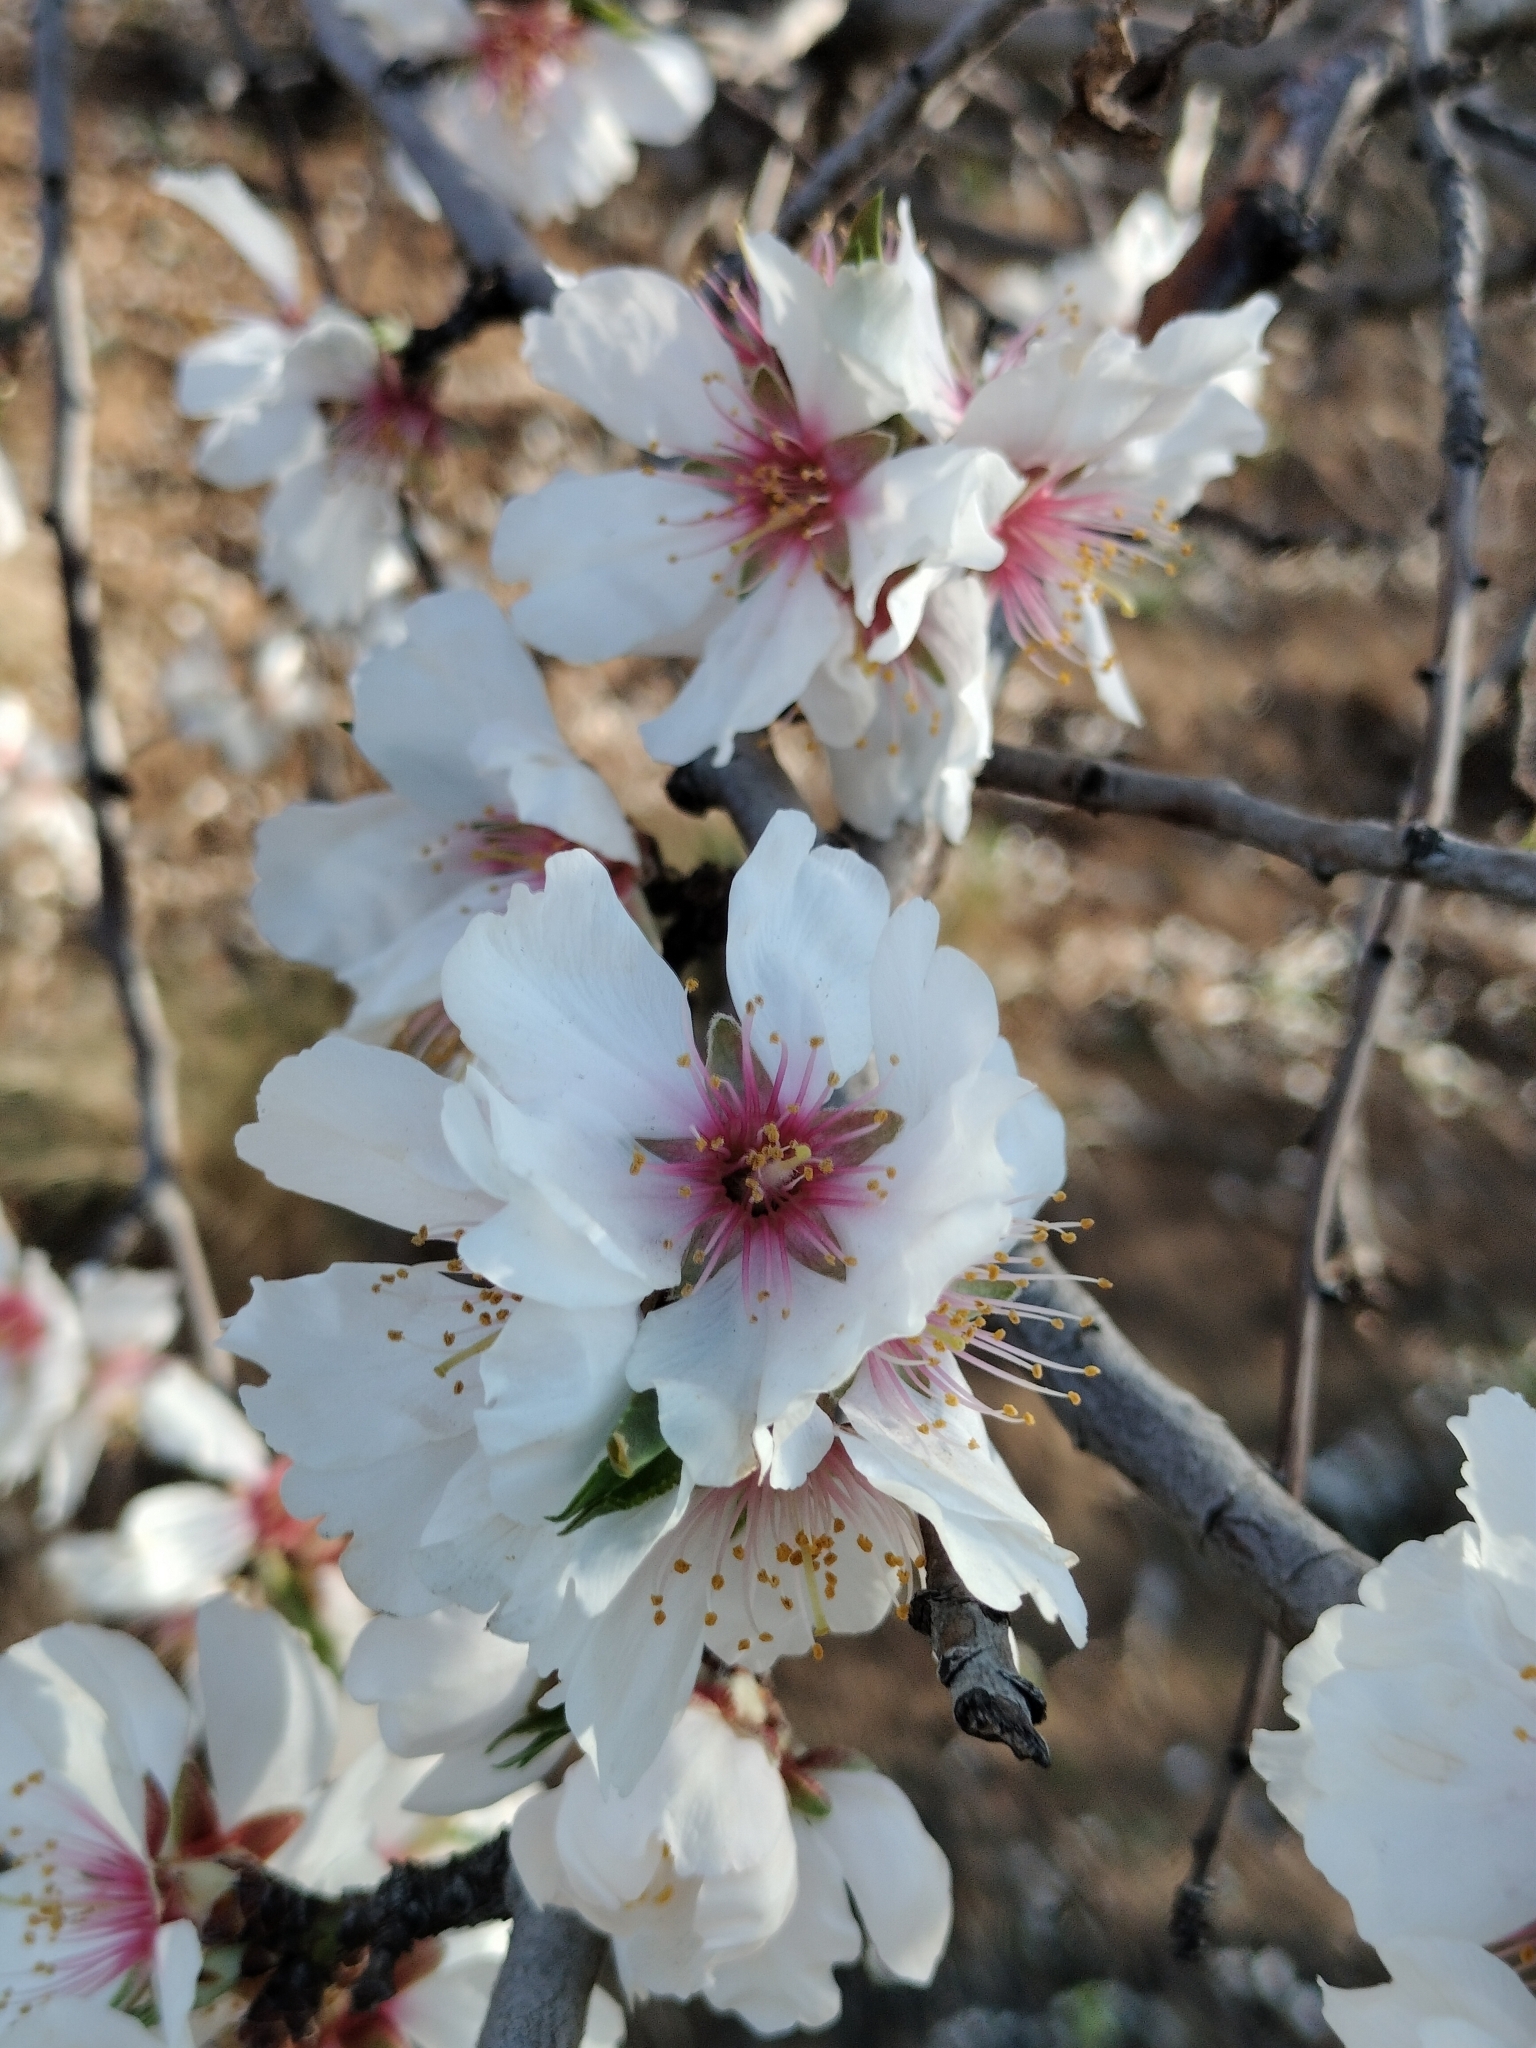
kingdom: Plantae
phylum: Tracheophyta
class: Magnoliopsida
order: Rosales
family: Rosaceae
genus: Prunus
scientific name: Prunus amygdalus
